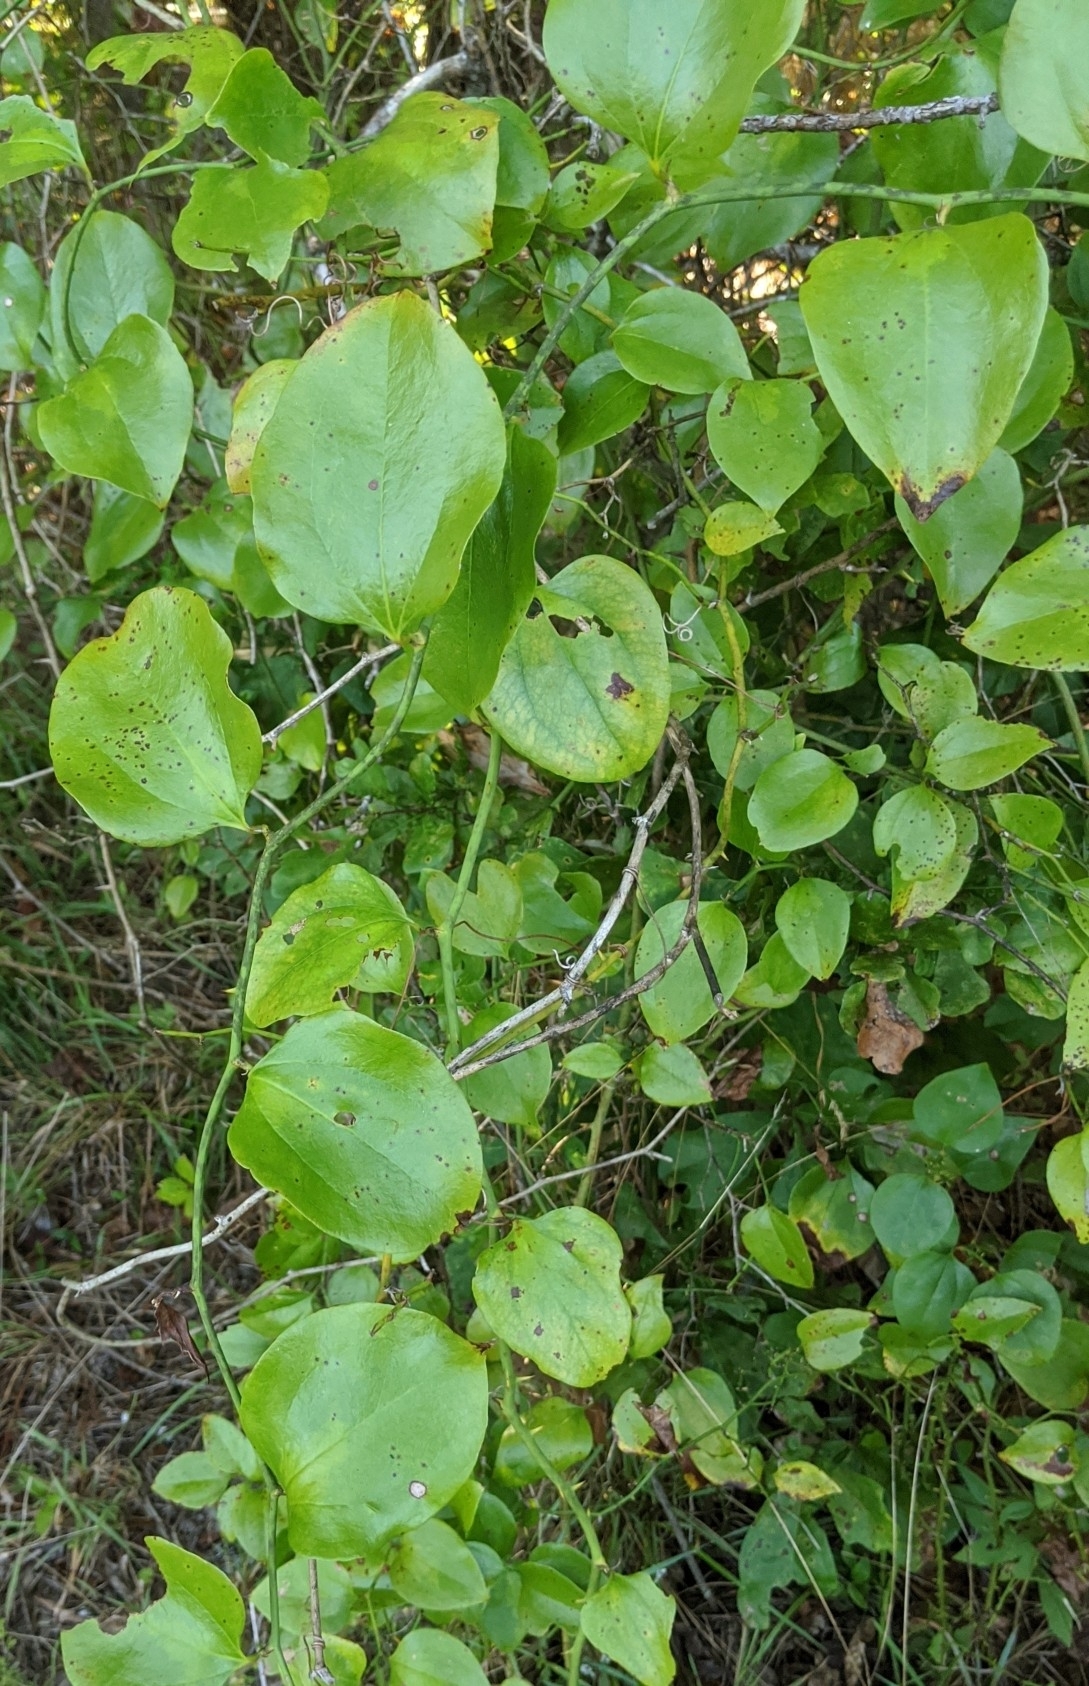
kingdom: Plantae
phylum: Tracheophyta
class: Liliopsida
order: Liliales
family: Smilacaceae
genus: Smilax
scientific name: Smilax rotundifolia
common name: Bullbriar
